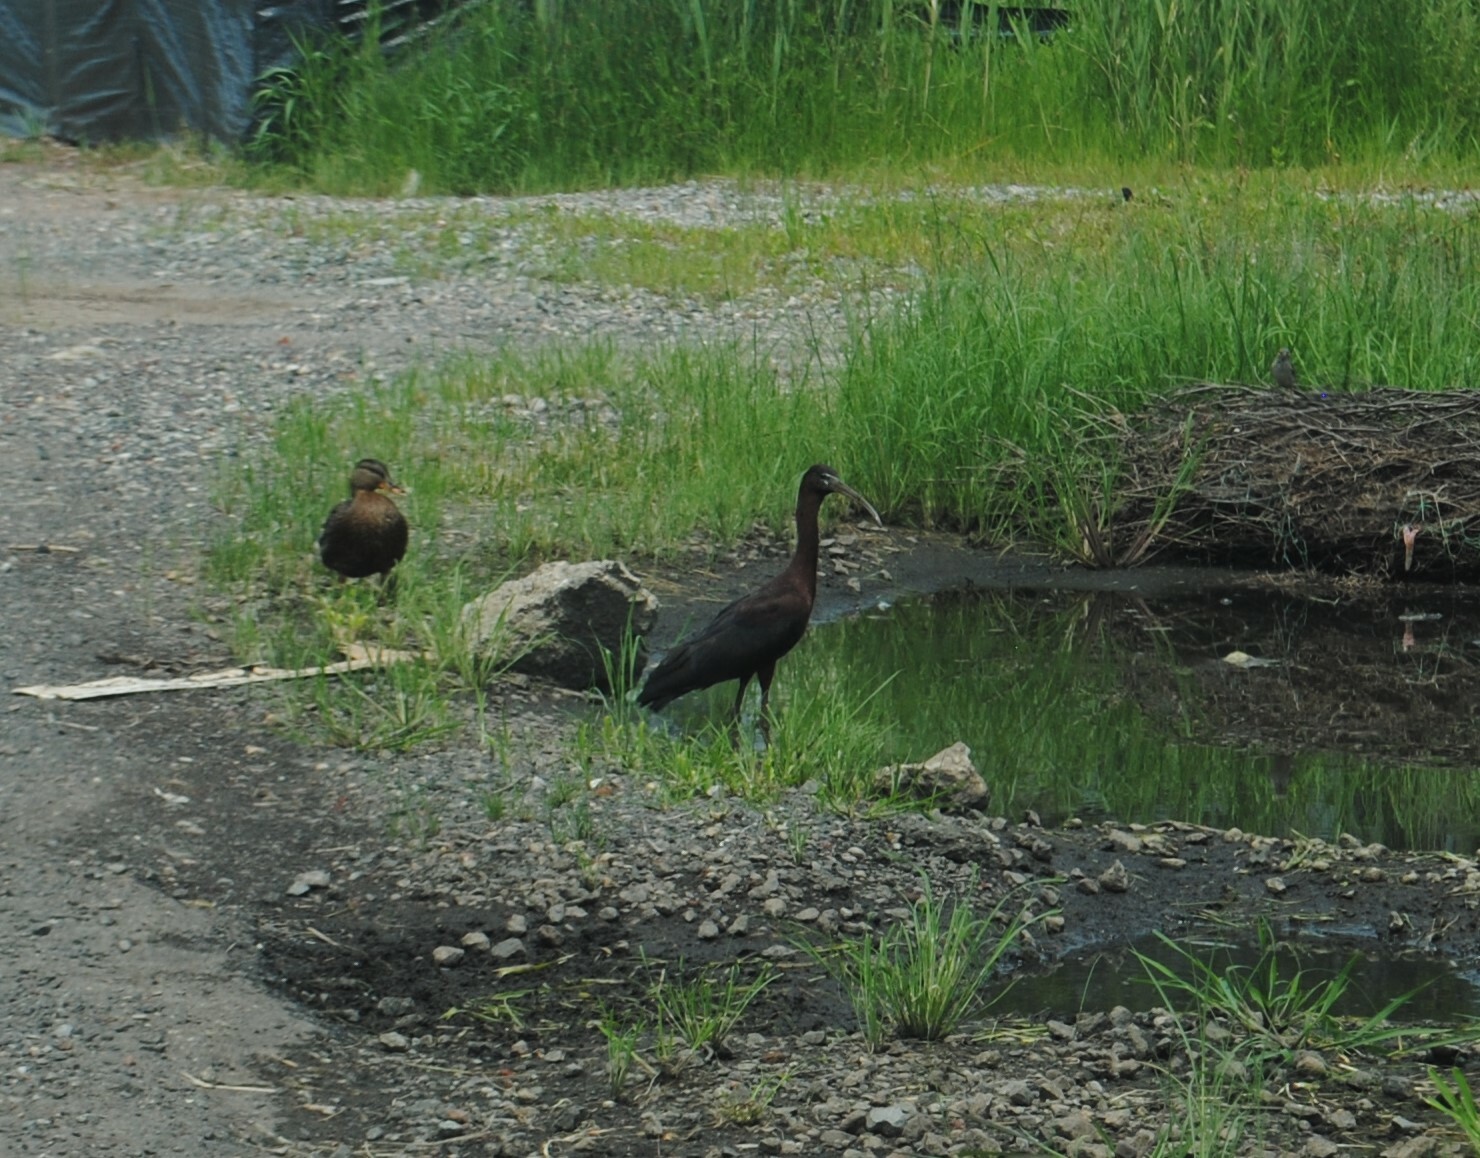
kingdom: Animalia
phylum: Chordata
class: Aves
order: Pelecaniformes
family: Threskiornithidae
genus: Plegadis
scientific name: Plegadis falcinellus
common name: Glossy ibis
